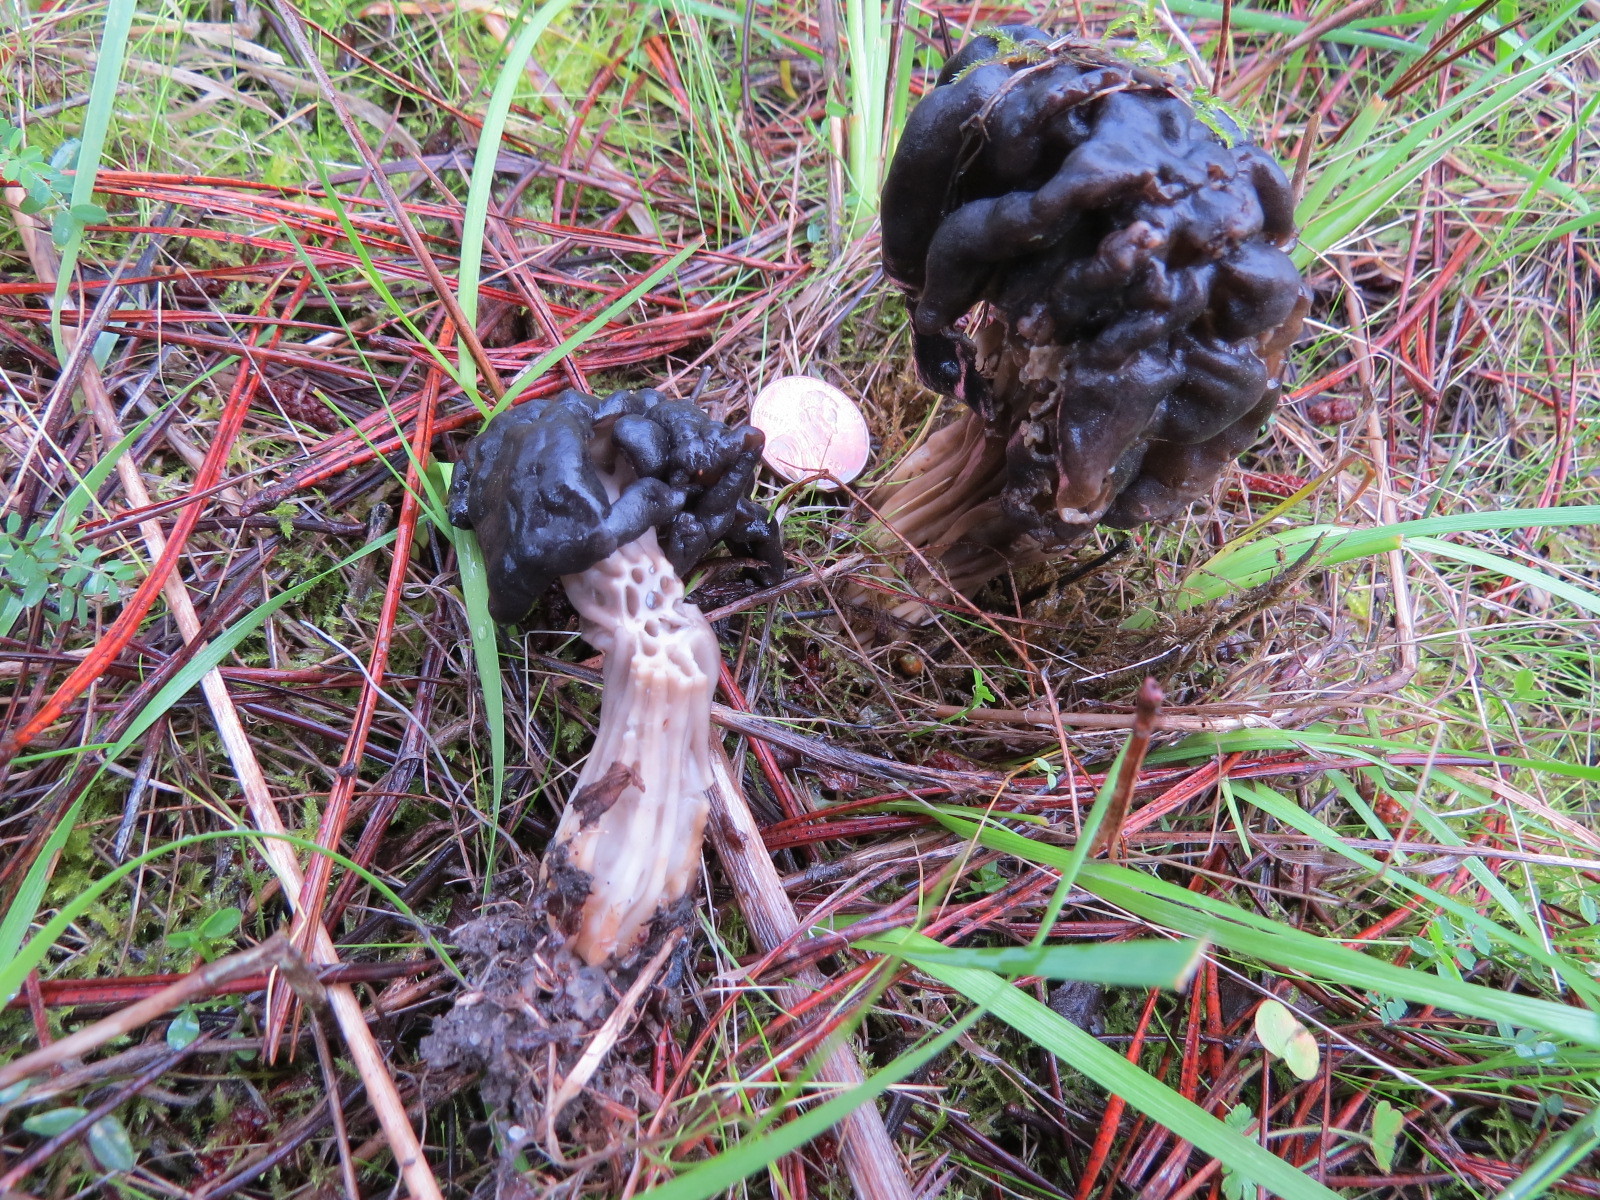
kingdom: Fungi
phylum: Ascomycota
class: Pezizomycetes
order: Pezizales
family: Helvellaceae
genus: Helvella
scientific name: Helvella vespertina
